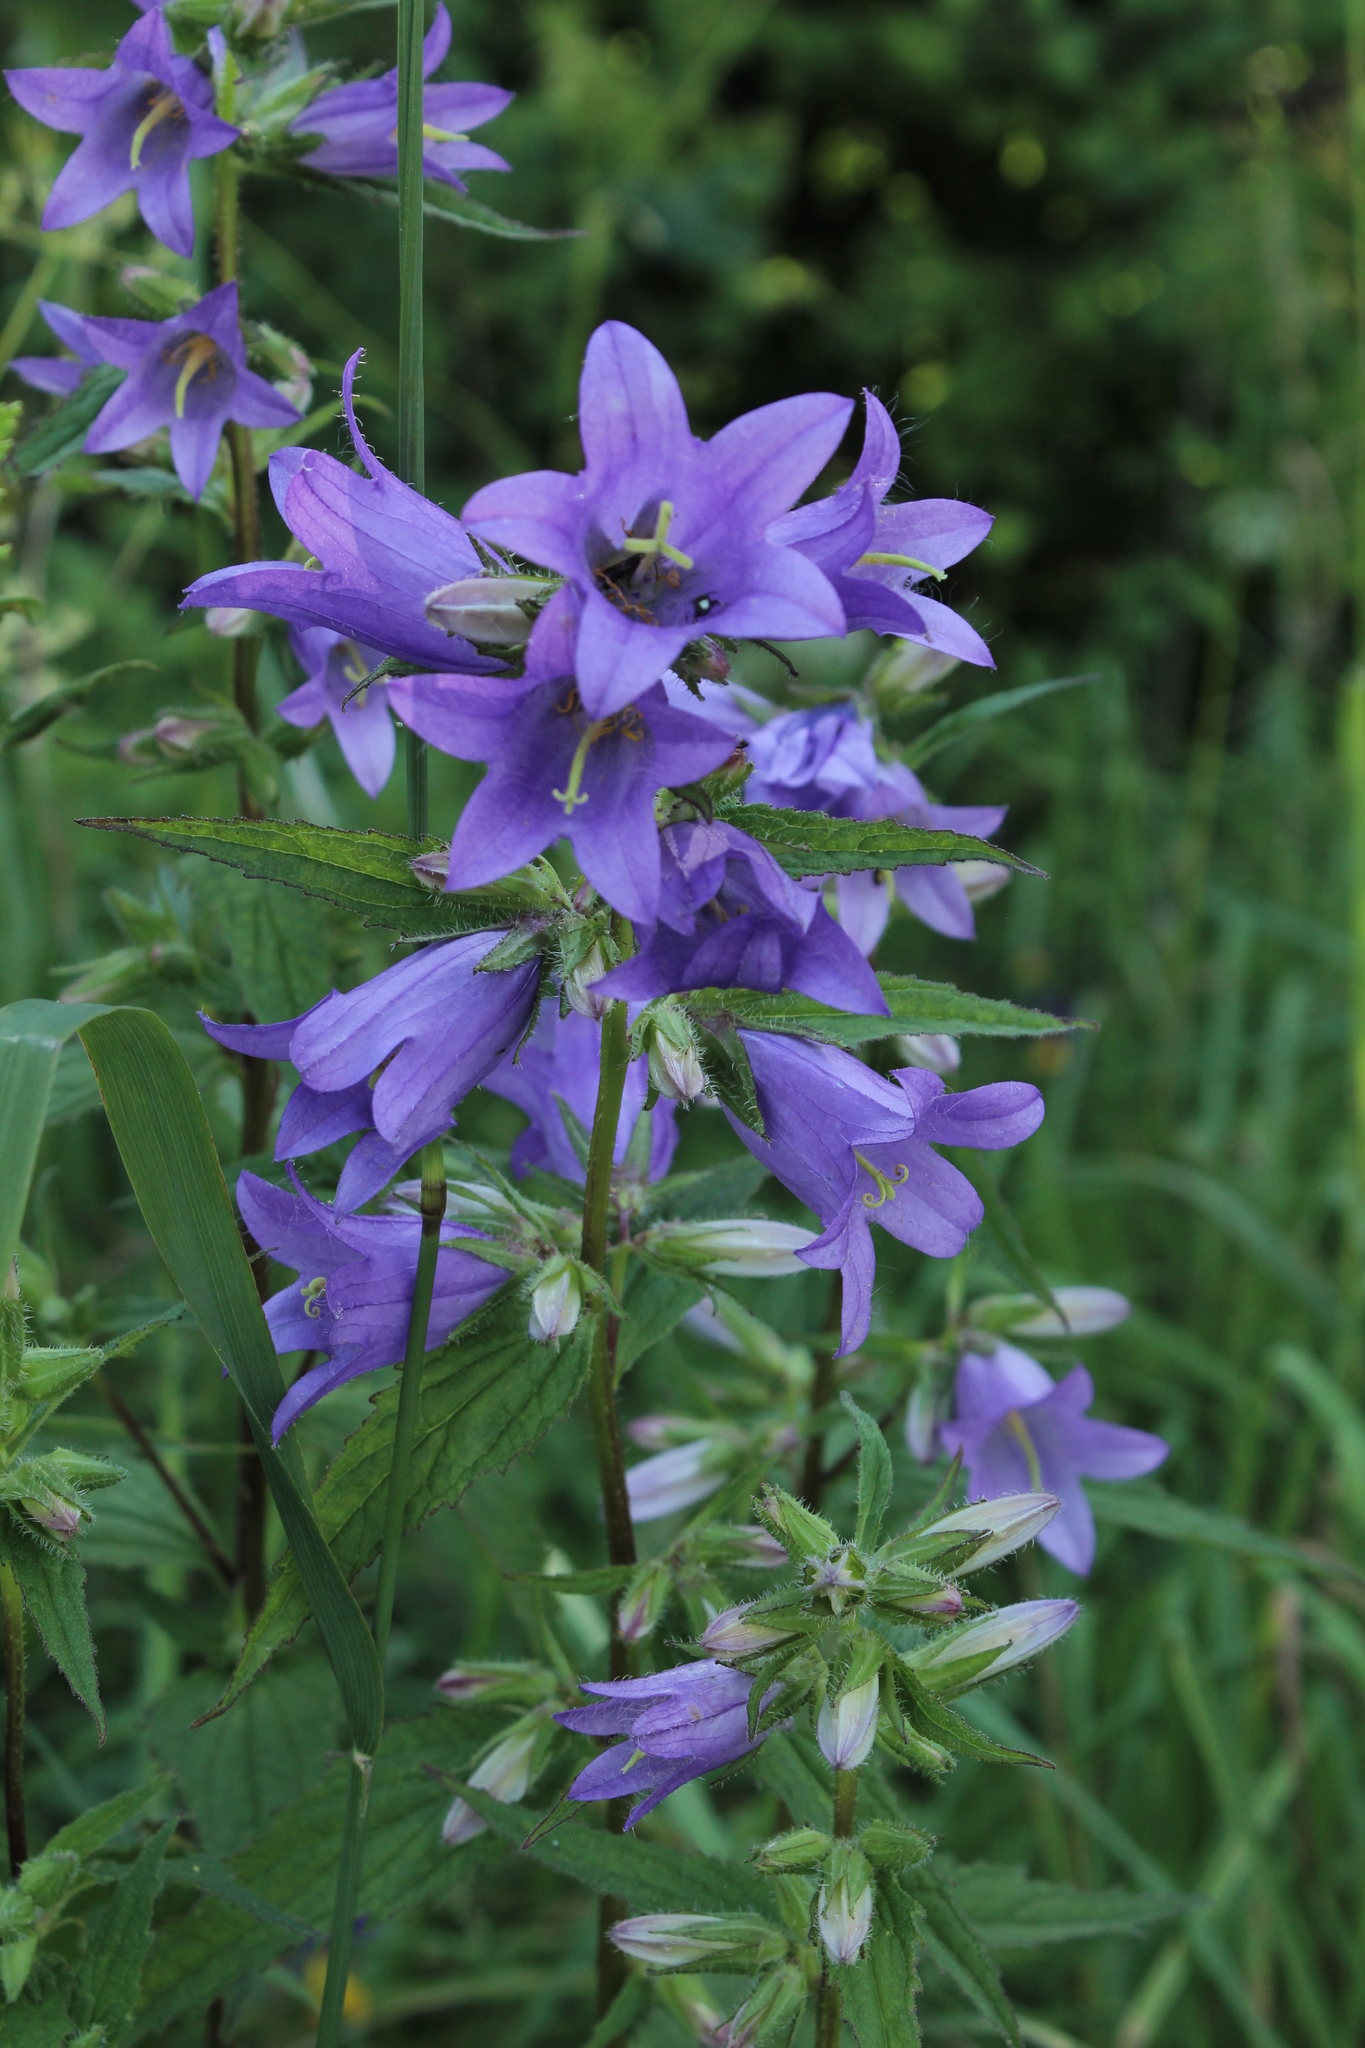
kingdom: Plantae
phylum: Tracheophyta
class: Magnoliopsida
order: Asterales
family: Campanulaceae
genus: Campanula
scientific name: Campanula trachelium
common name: Nettle-leaved bellflower
